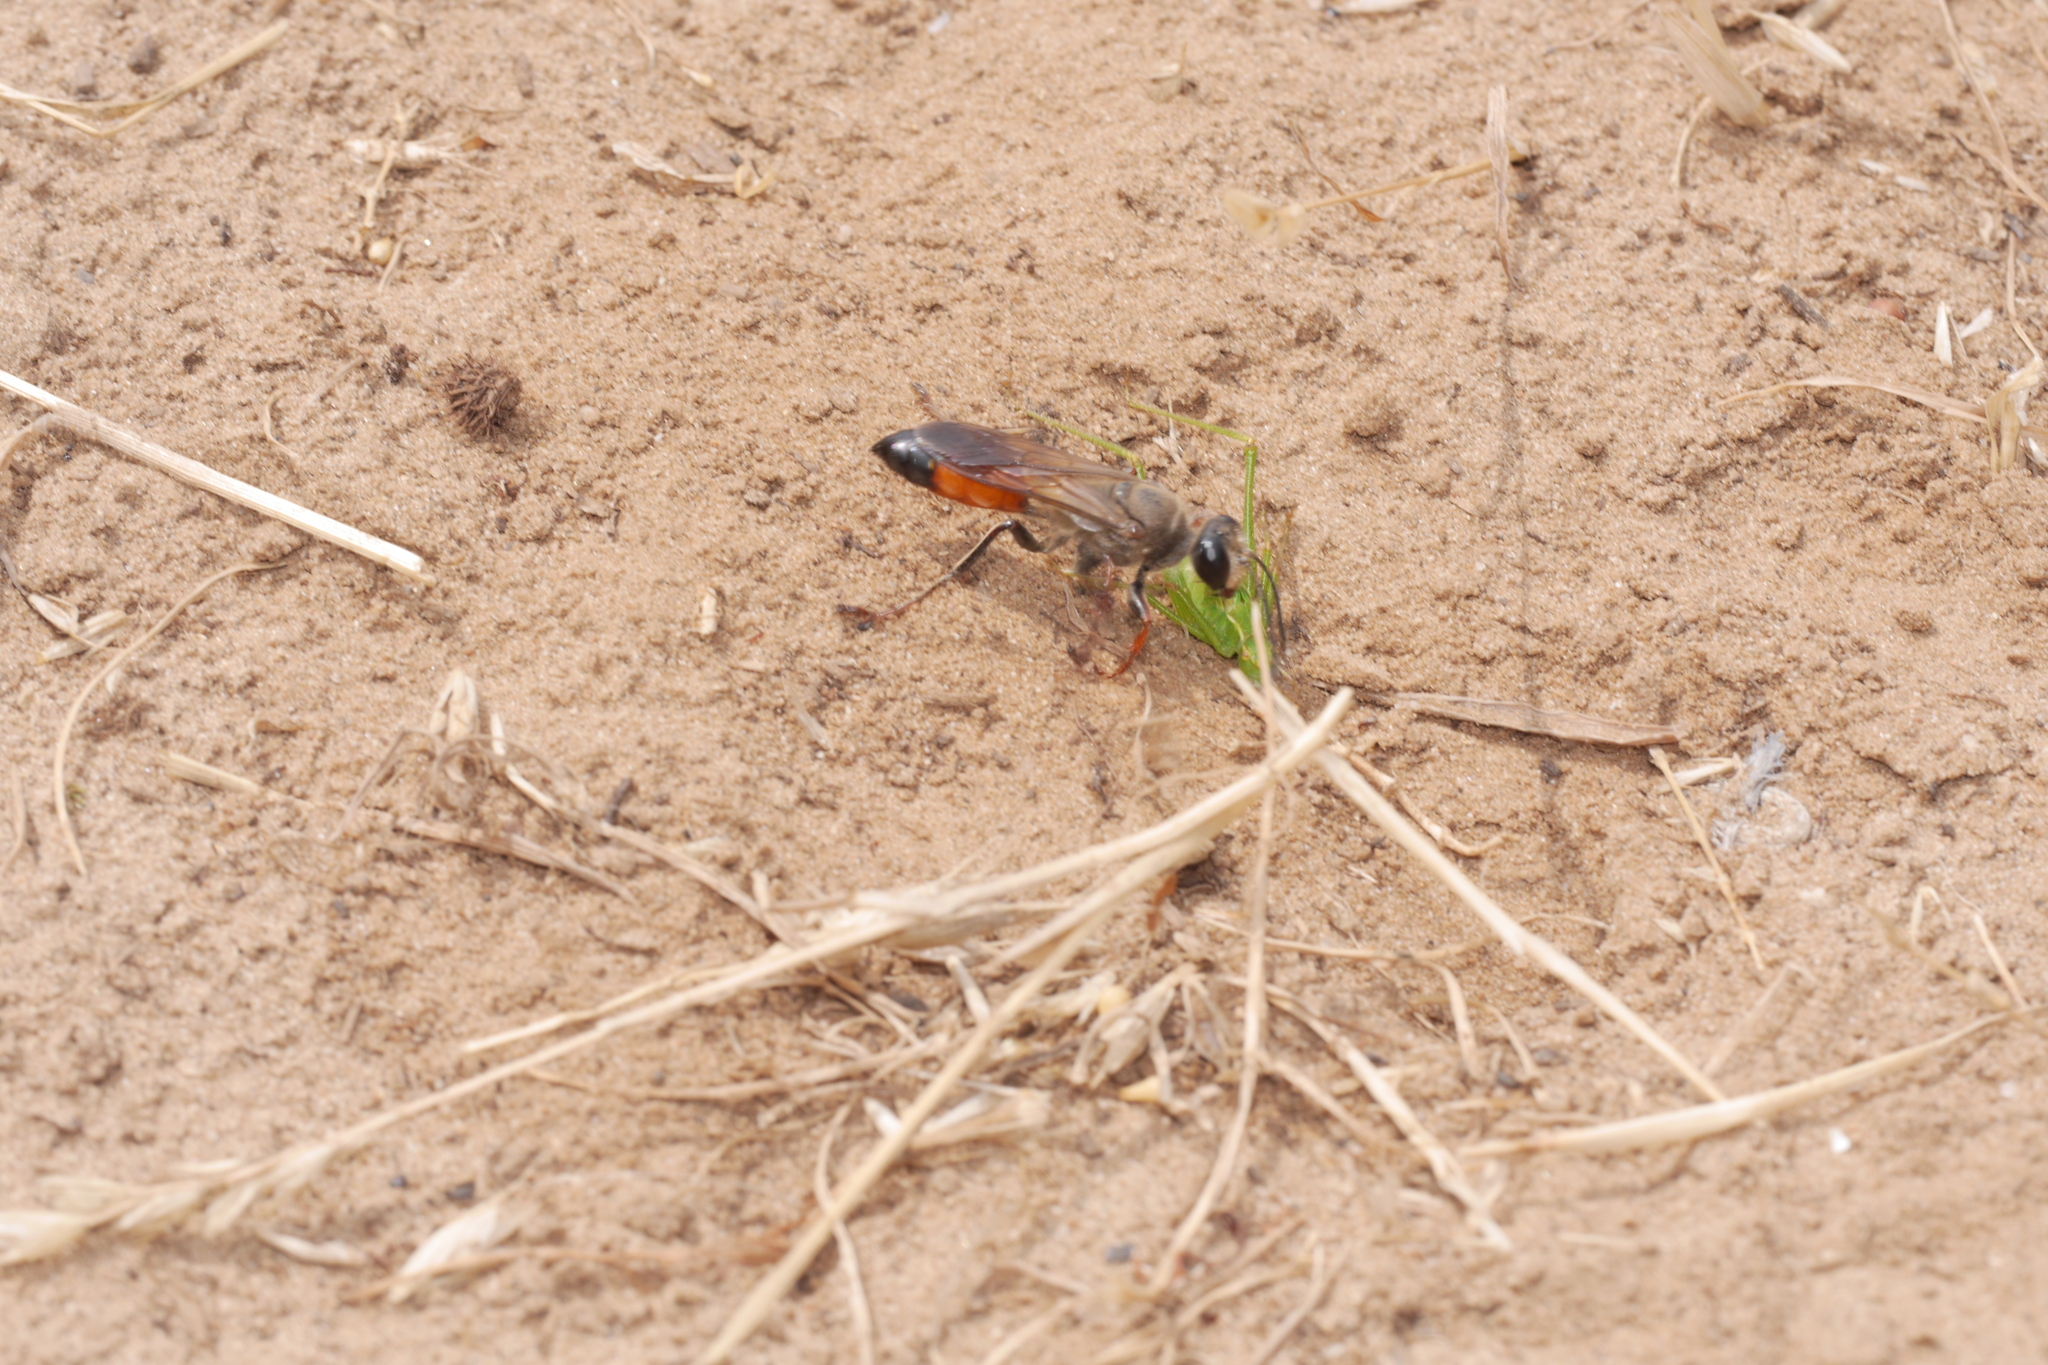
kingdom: Animalia
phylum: Arthropoda
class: Insecta
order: Hymenoptera
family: Sphecidae
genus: Sphex
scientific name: Sphex funerarius
